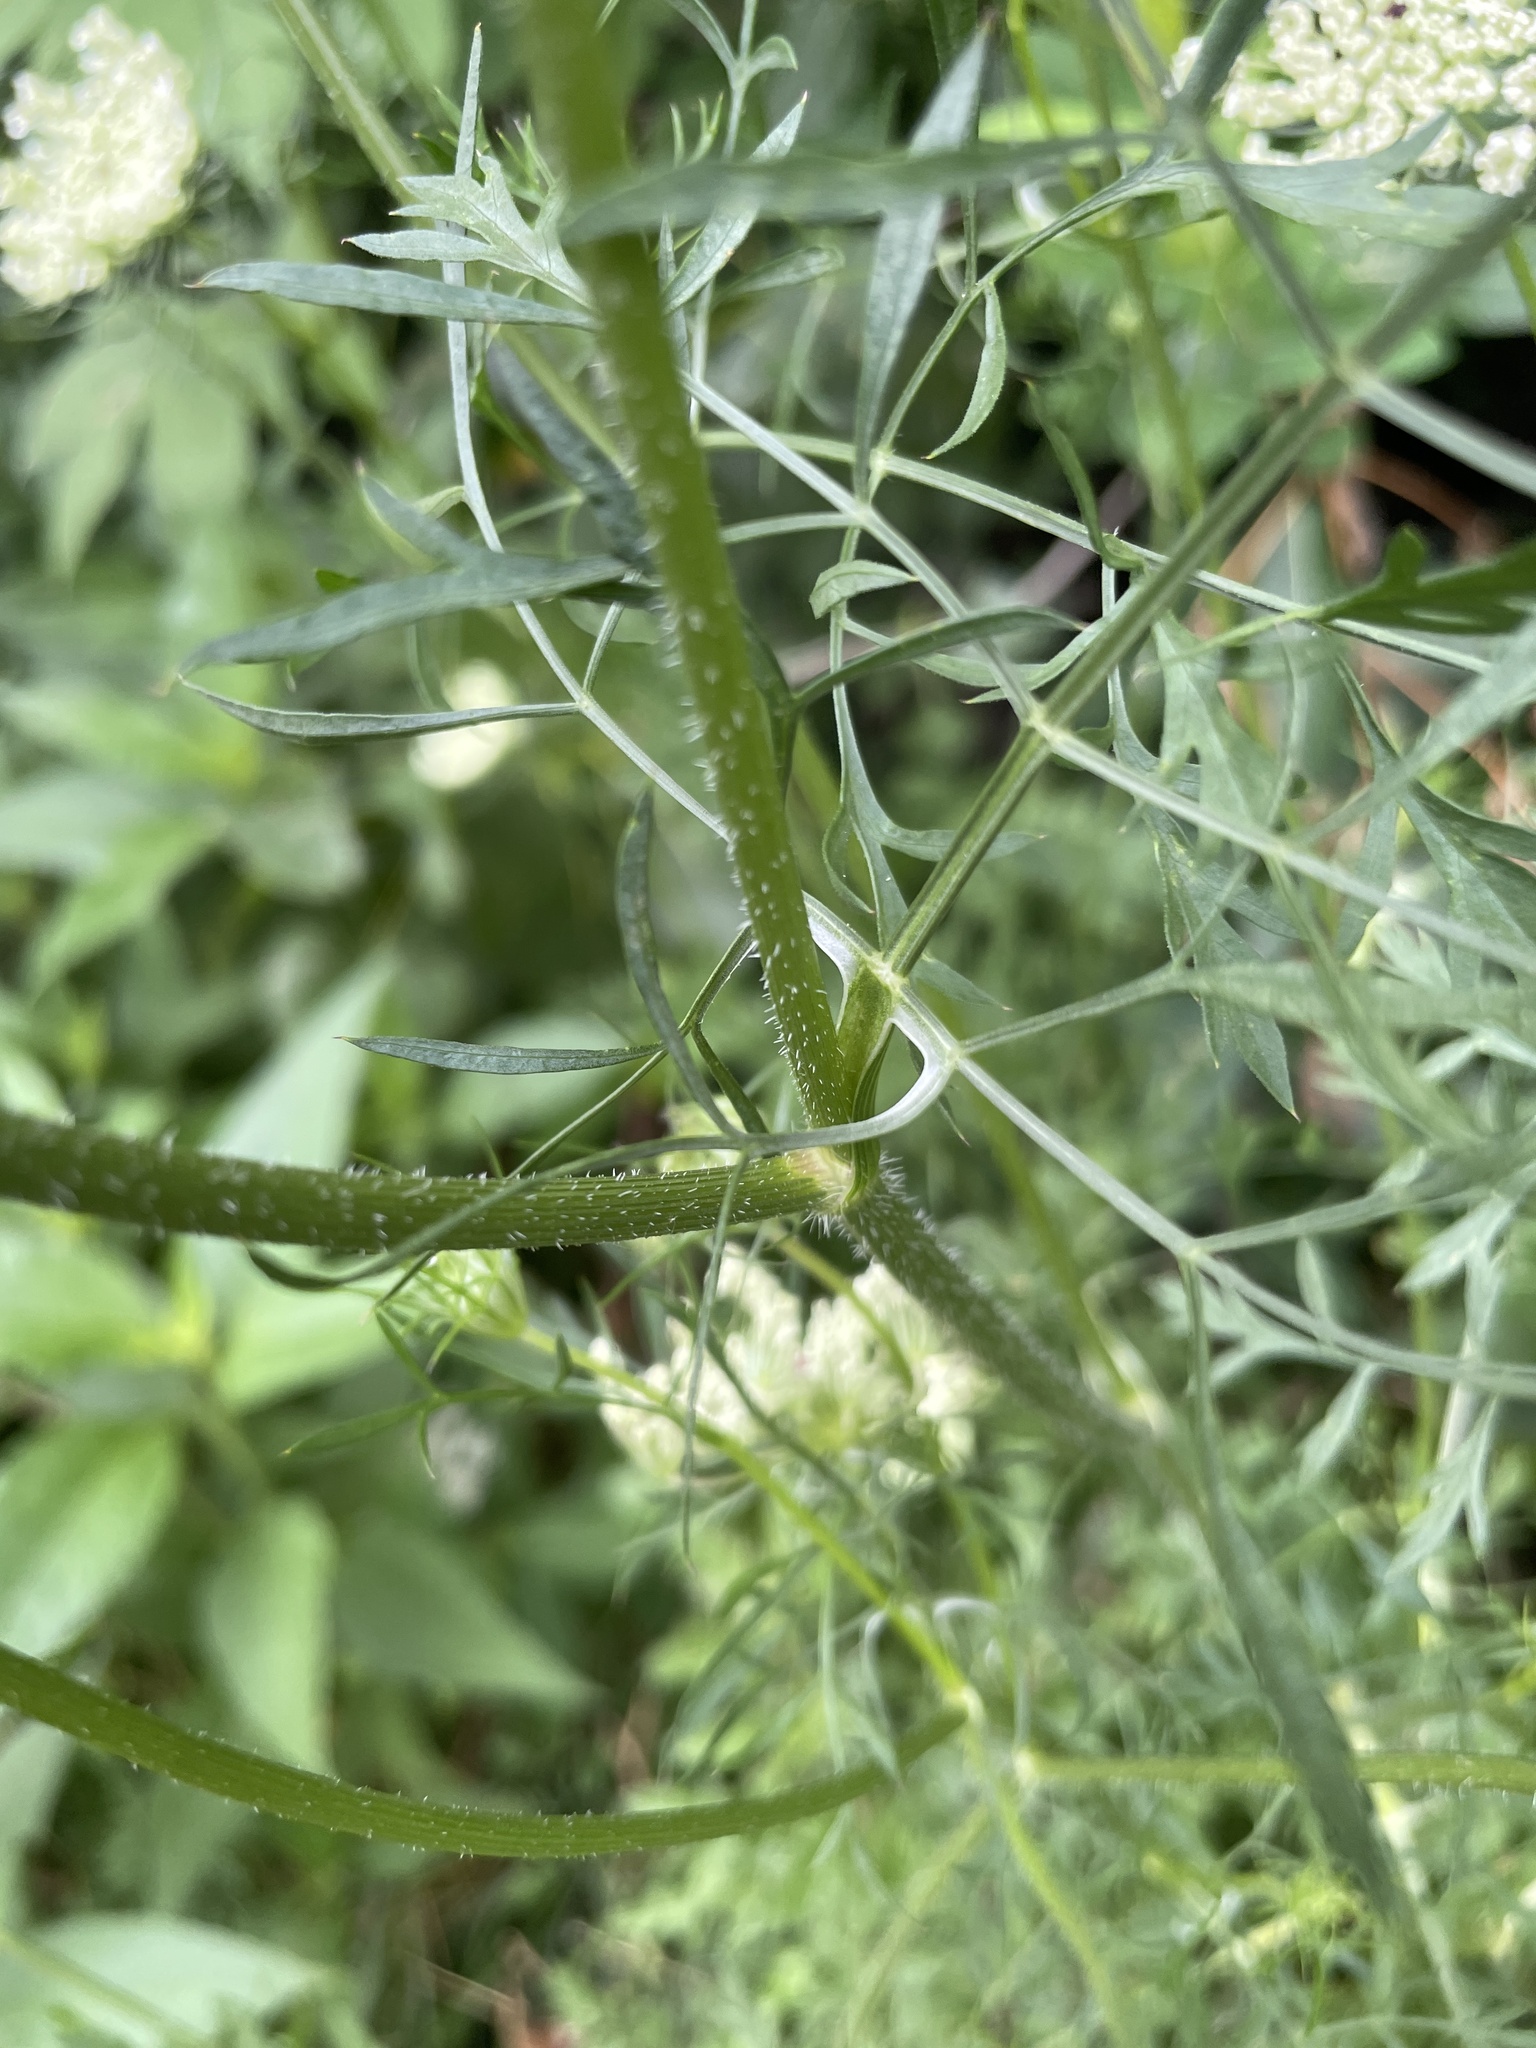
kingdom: Plantae
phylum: Tracheophyta
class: Magnoliopsida
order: Apiales
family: Apiaceae
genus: Daucus
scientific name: Daucus carota
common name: Wild carrot
